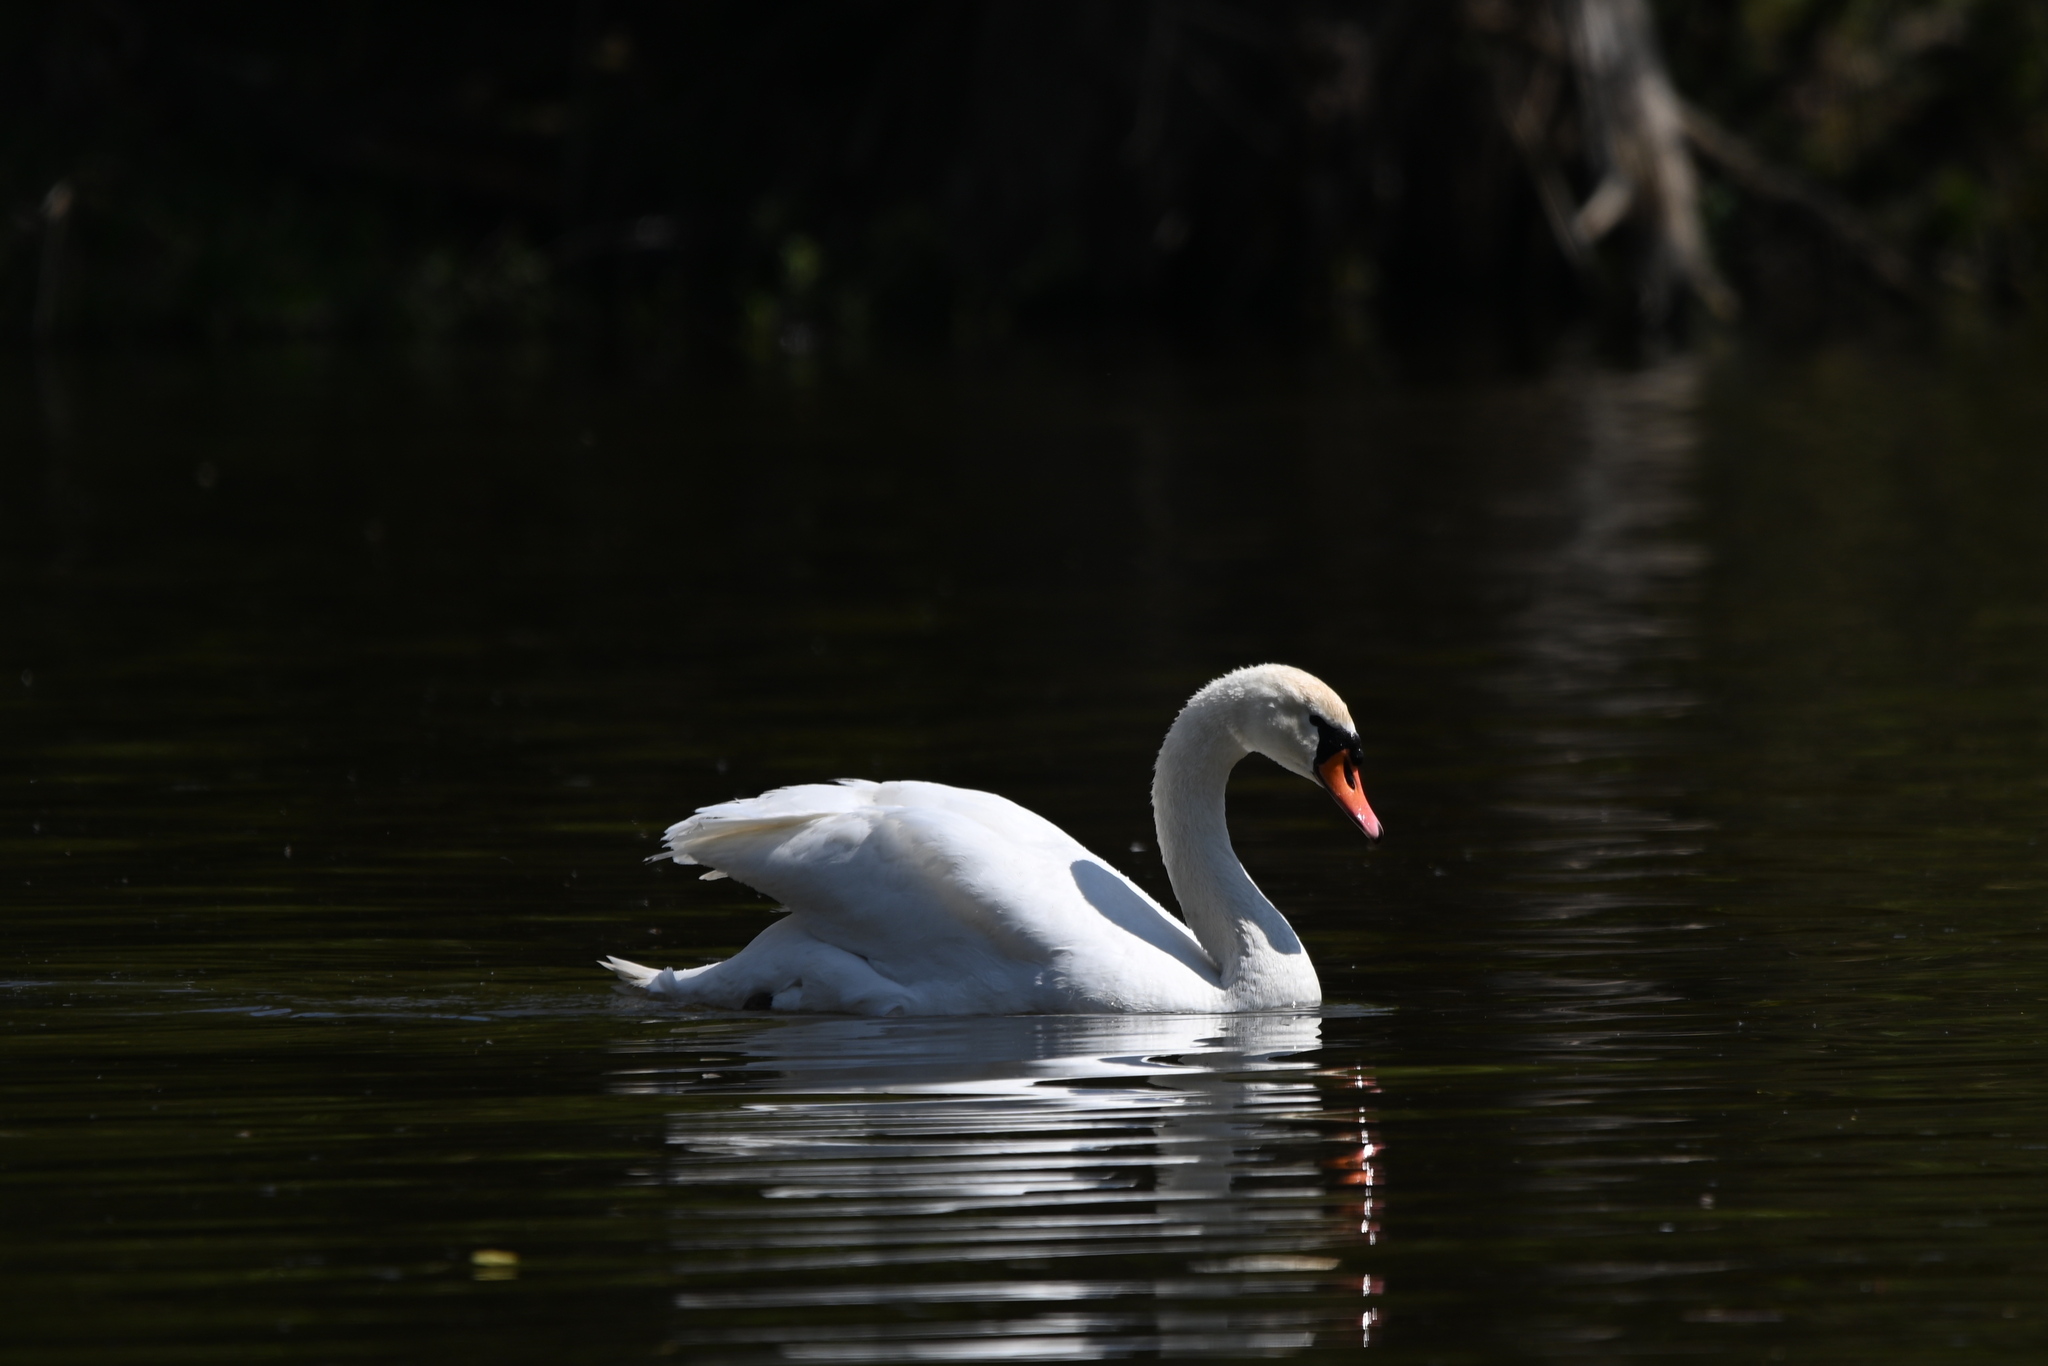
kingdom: Animalia
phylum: Chordata
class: Aves
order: Anseriformes
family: Anatidae
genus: Cygnus
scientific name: Cygnus olor
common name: Mute swan
